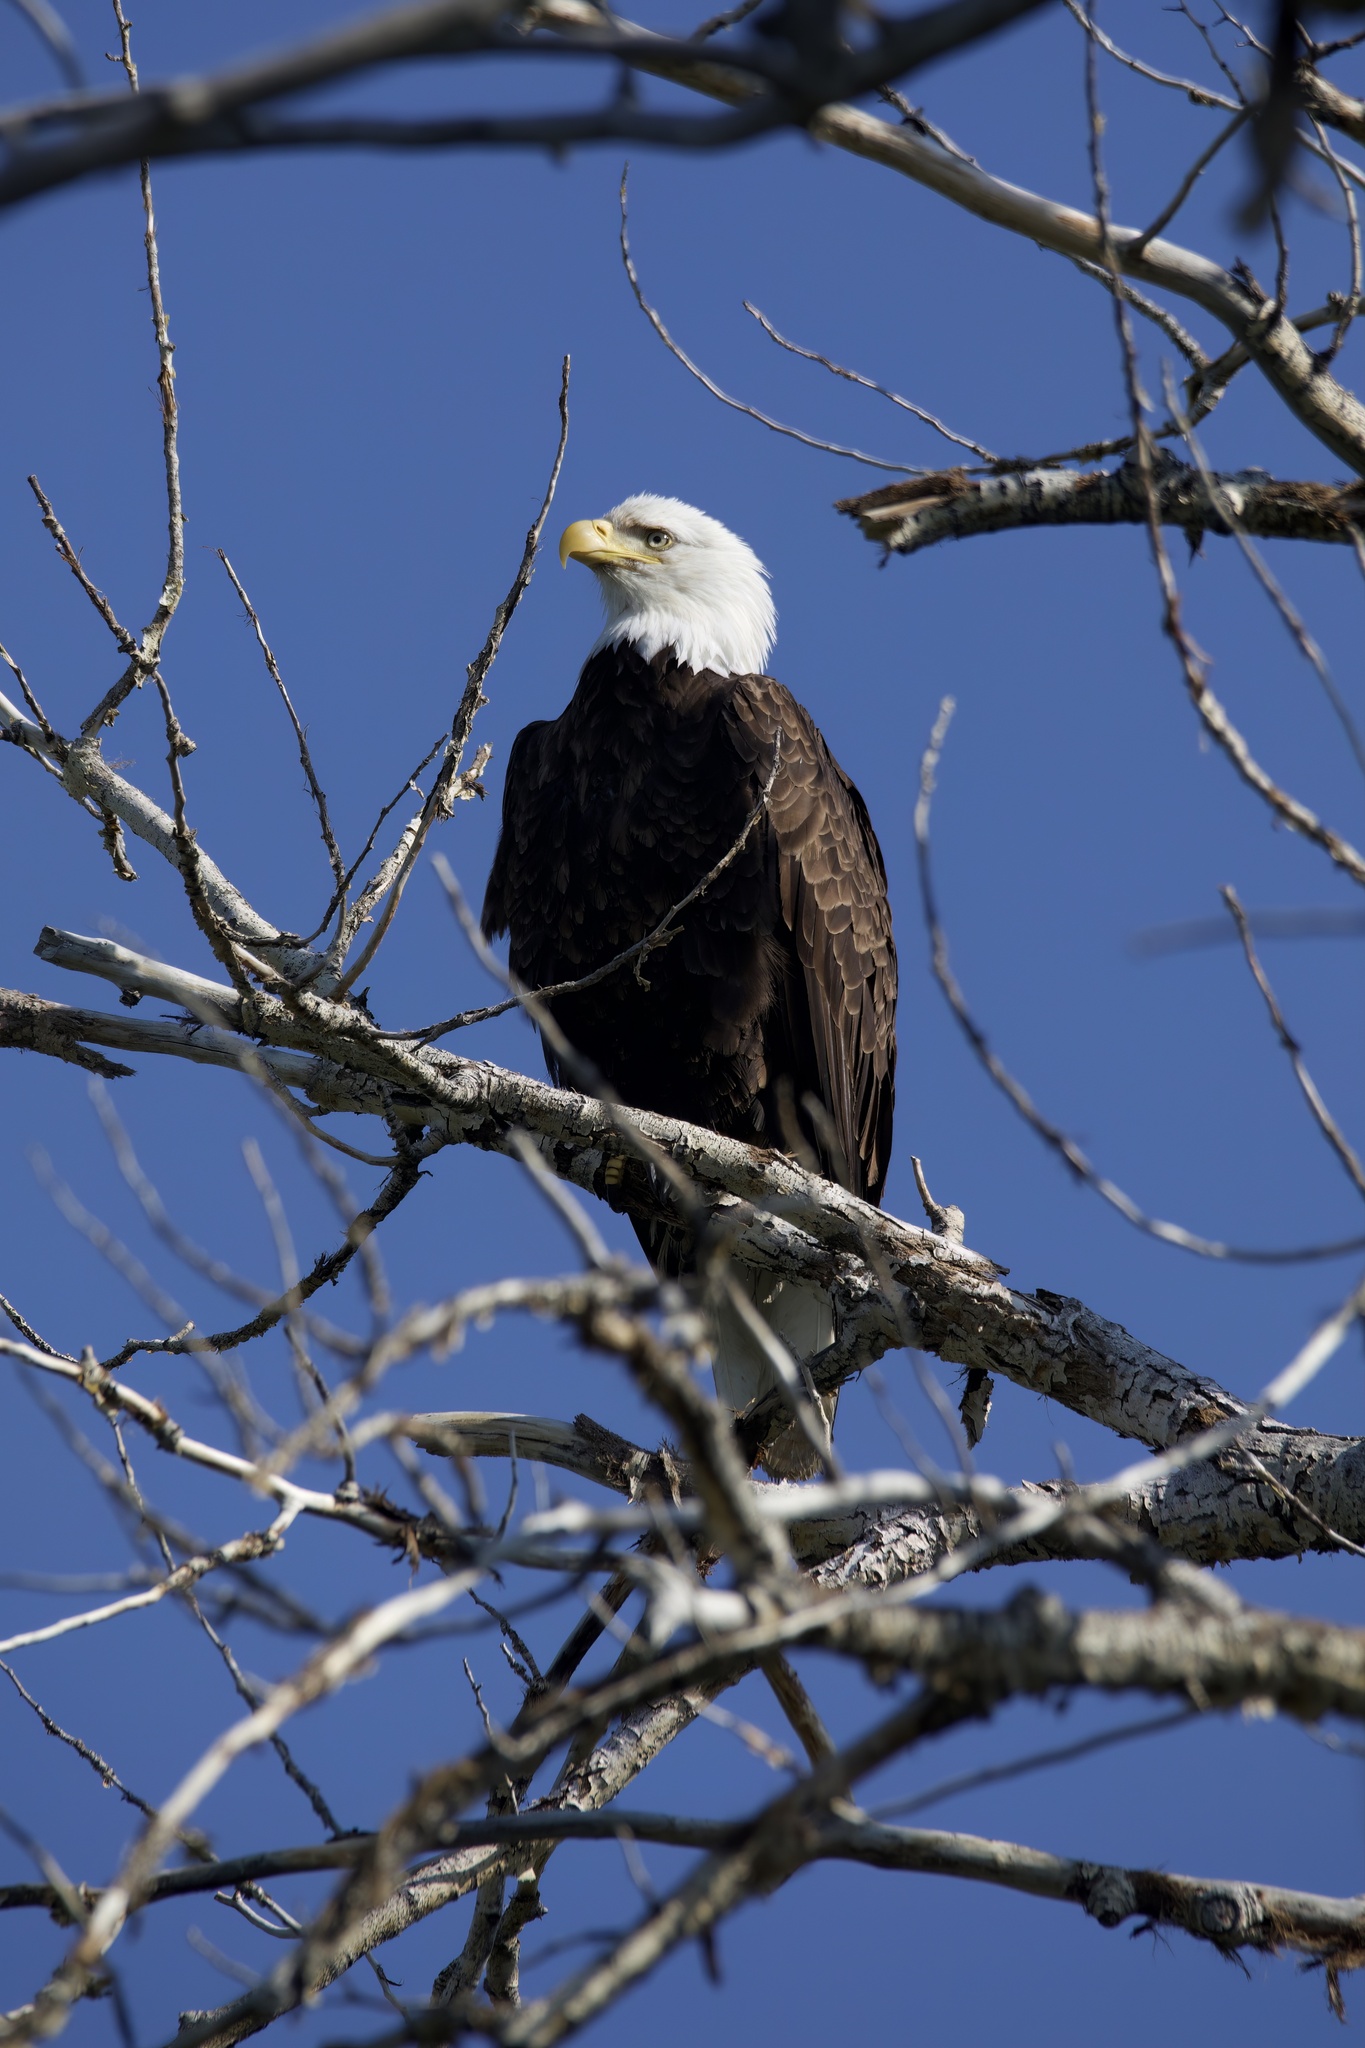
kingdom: Animalia
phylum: Chordata
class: Aves
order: Accipitriformes
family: Accipitridae
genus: Haliaeetus
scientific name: Haliaeetus leucocephalus
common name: Bald eagle
